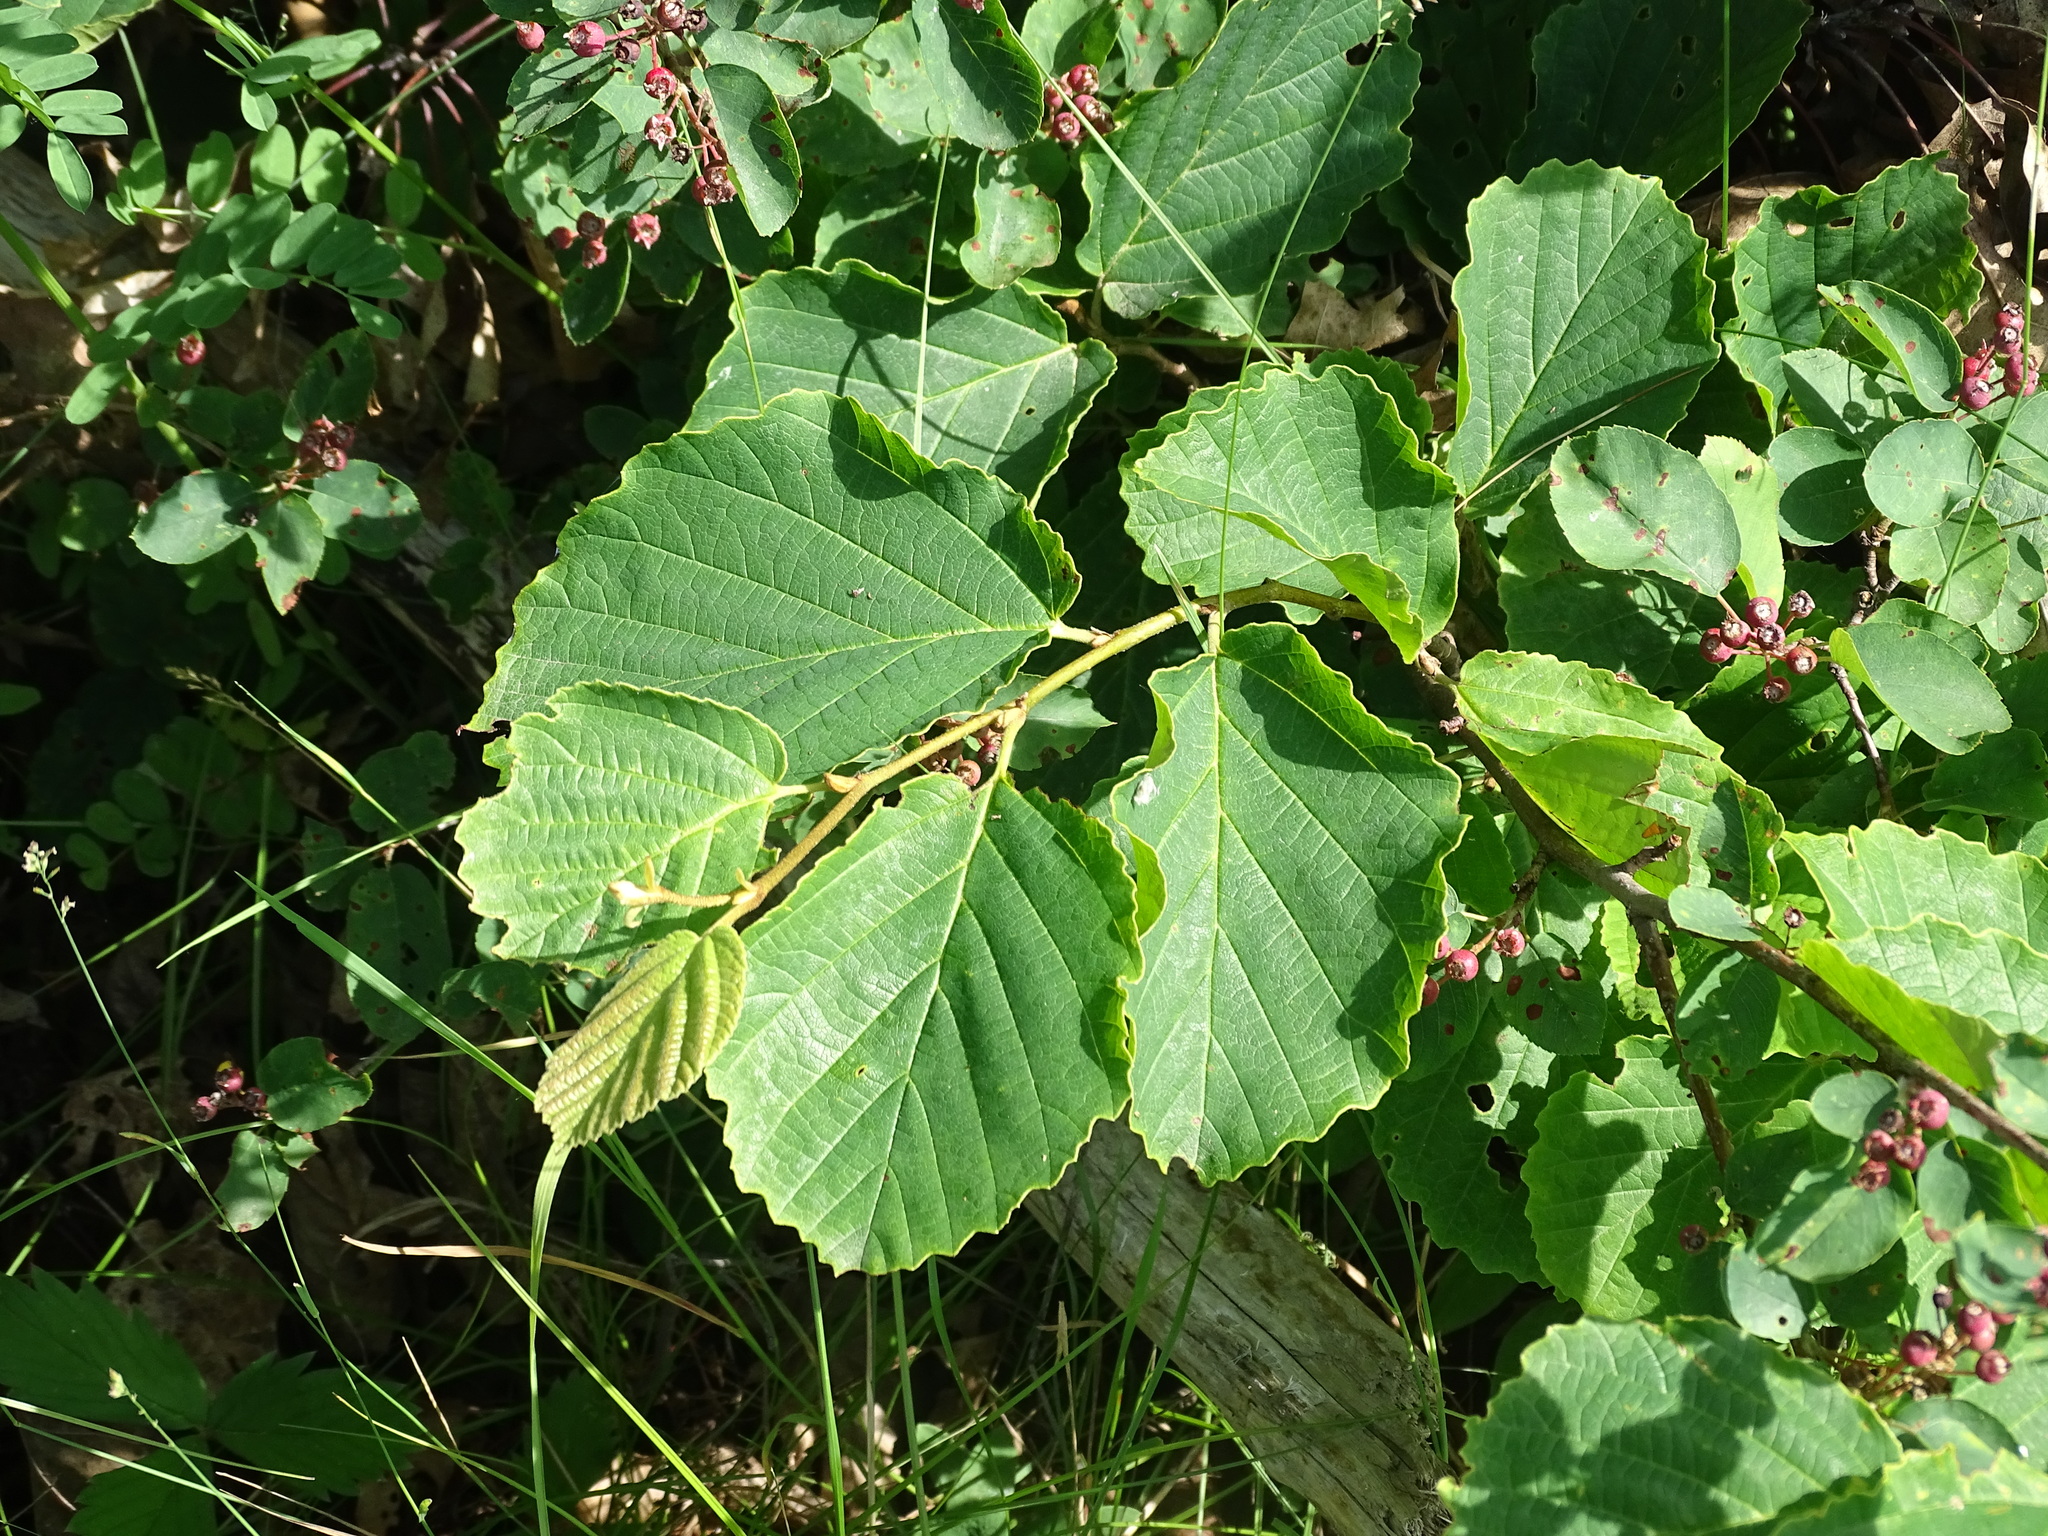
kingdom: Plantae
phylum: Tracheophyta
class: Magnoliopsida
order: Saxifragales
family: Hamamelidaceae
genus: Hamamelis
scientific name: Hamamelis virginiana
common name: Witch-hazel
